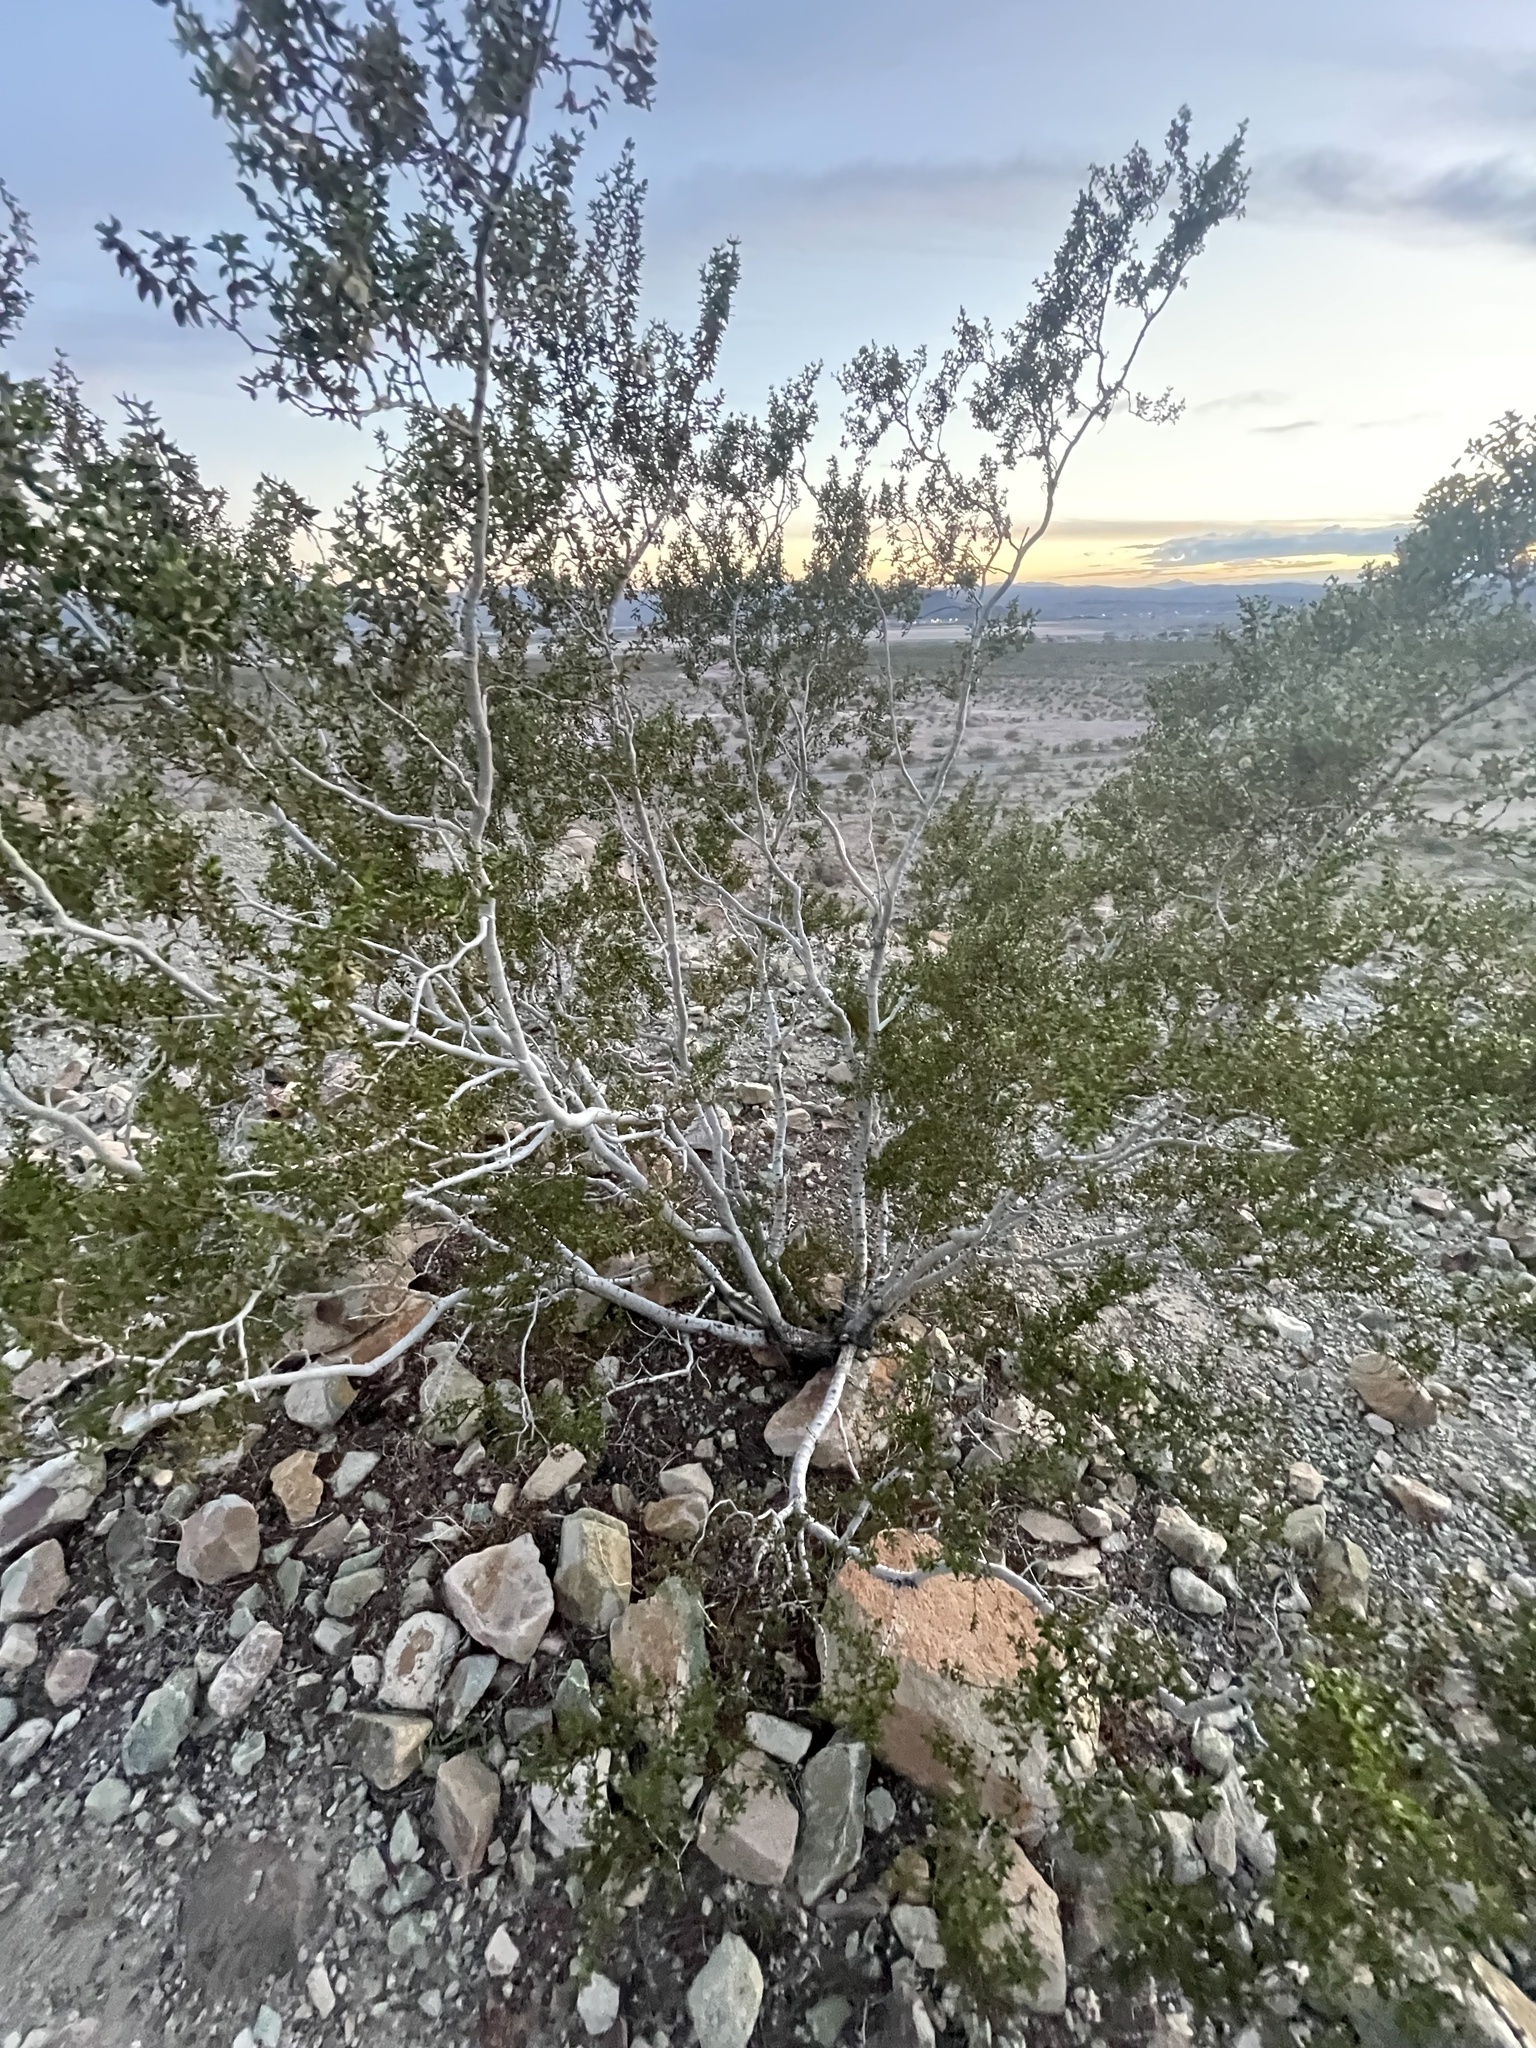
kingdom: Plantae
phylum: Tracheophyta
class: Magnoliopsida
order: Zygophyllales
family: Zygophyllaceae
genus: Larrea
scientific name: Larrea tridentata
